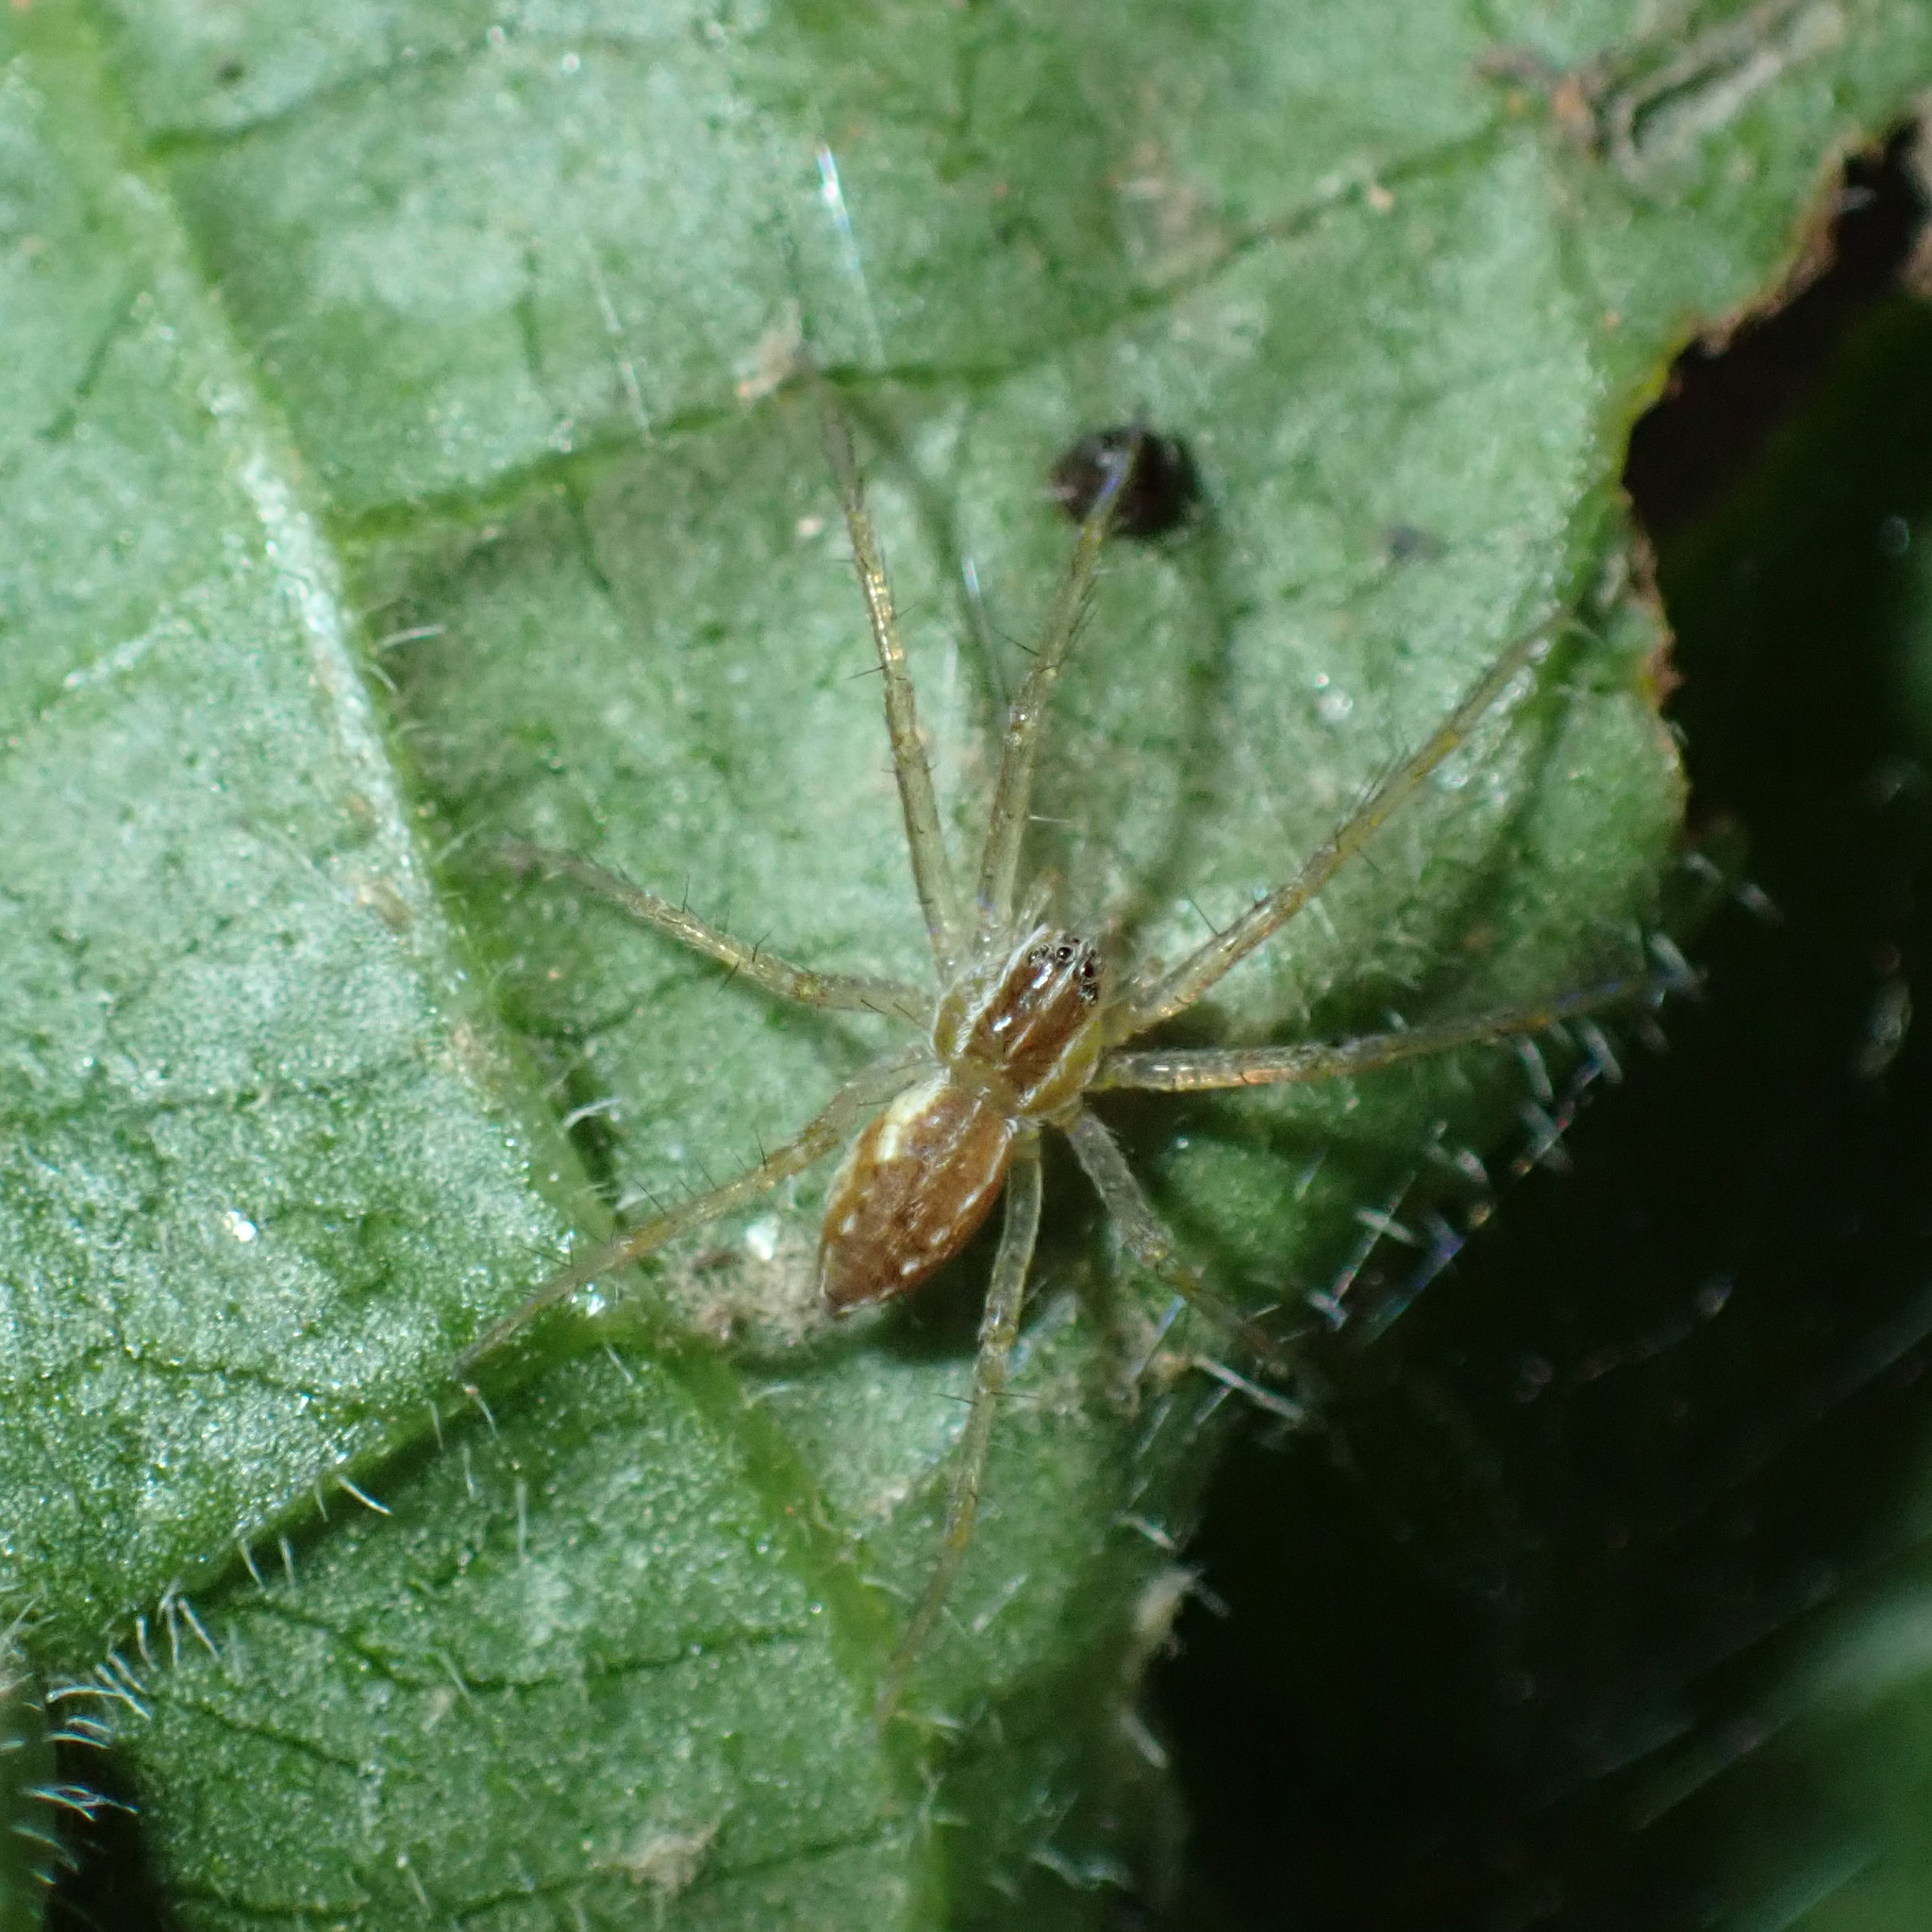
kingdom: Animalia
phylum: Arthropoda
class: Arachnida
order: Araneae
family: Pisauridae
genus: Pisaurina
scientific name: Pisaurina mira
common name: American nursery web spider
